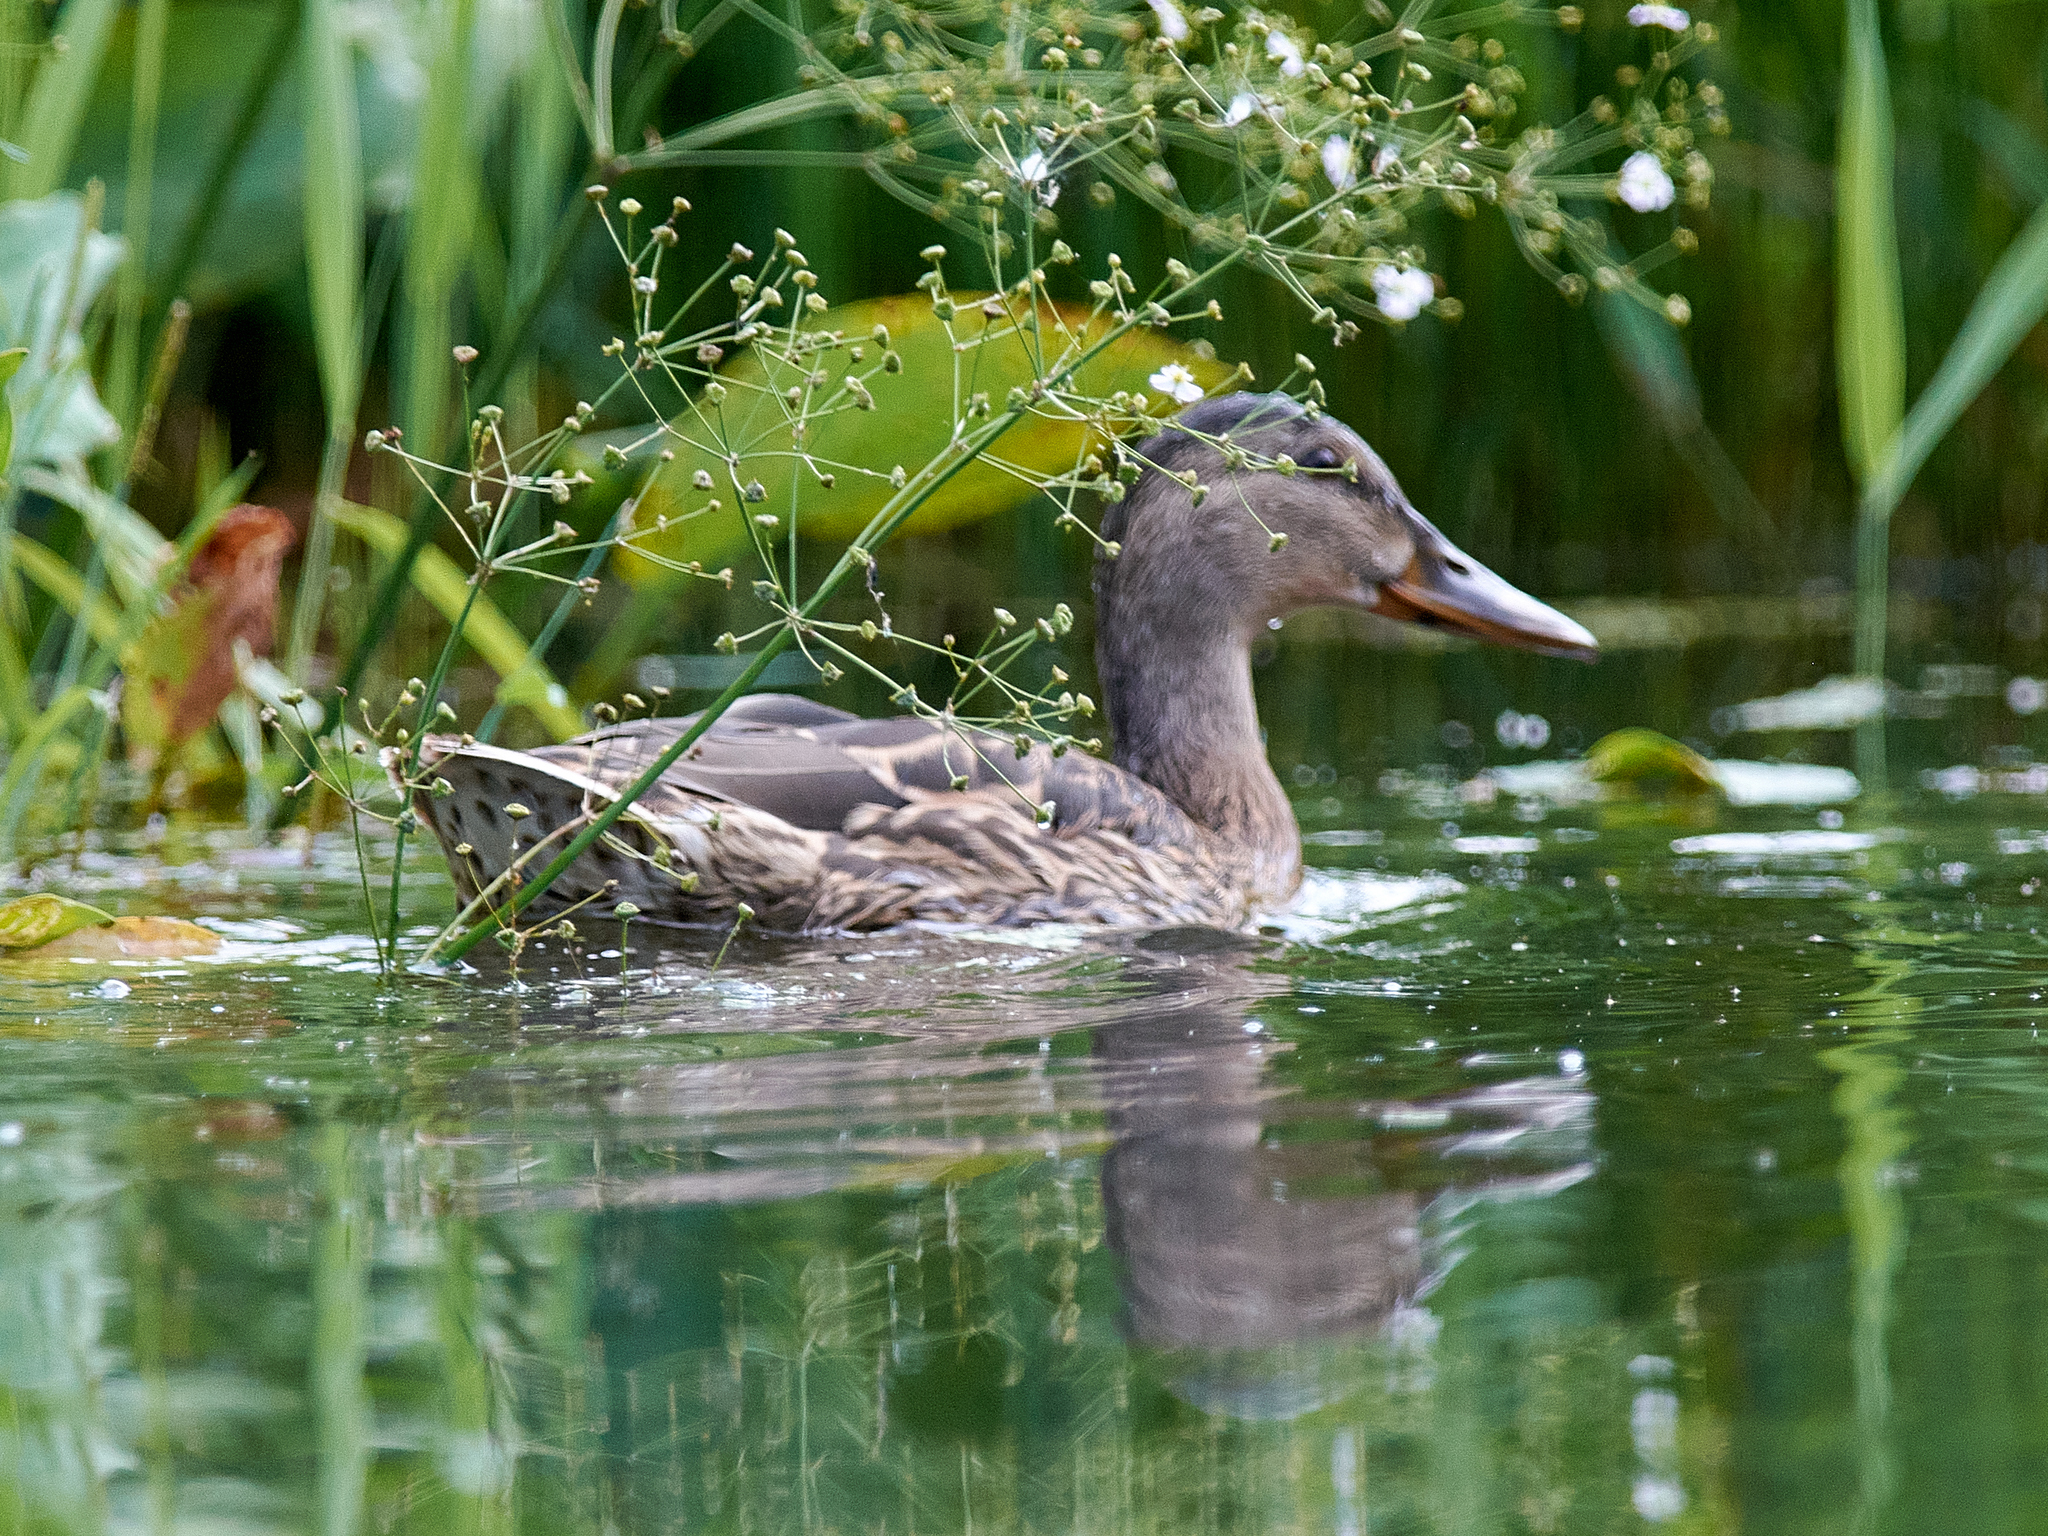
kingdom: Animalia
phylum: Chordata
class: Aves
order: Anseriformes
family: Anatidae
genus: Anas
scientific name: Anas platyrhynchos
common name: Mallard
